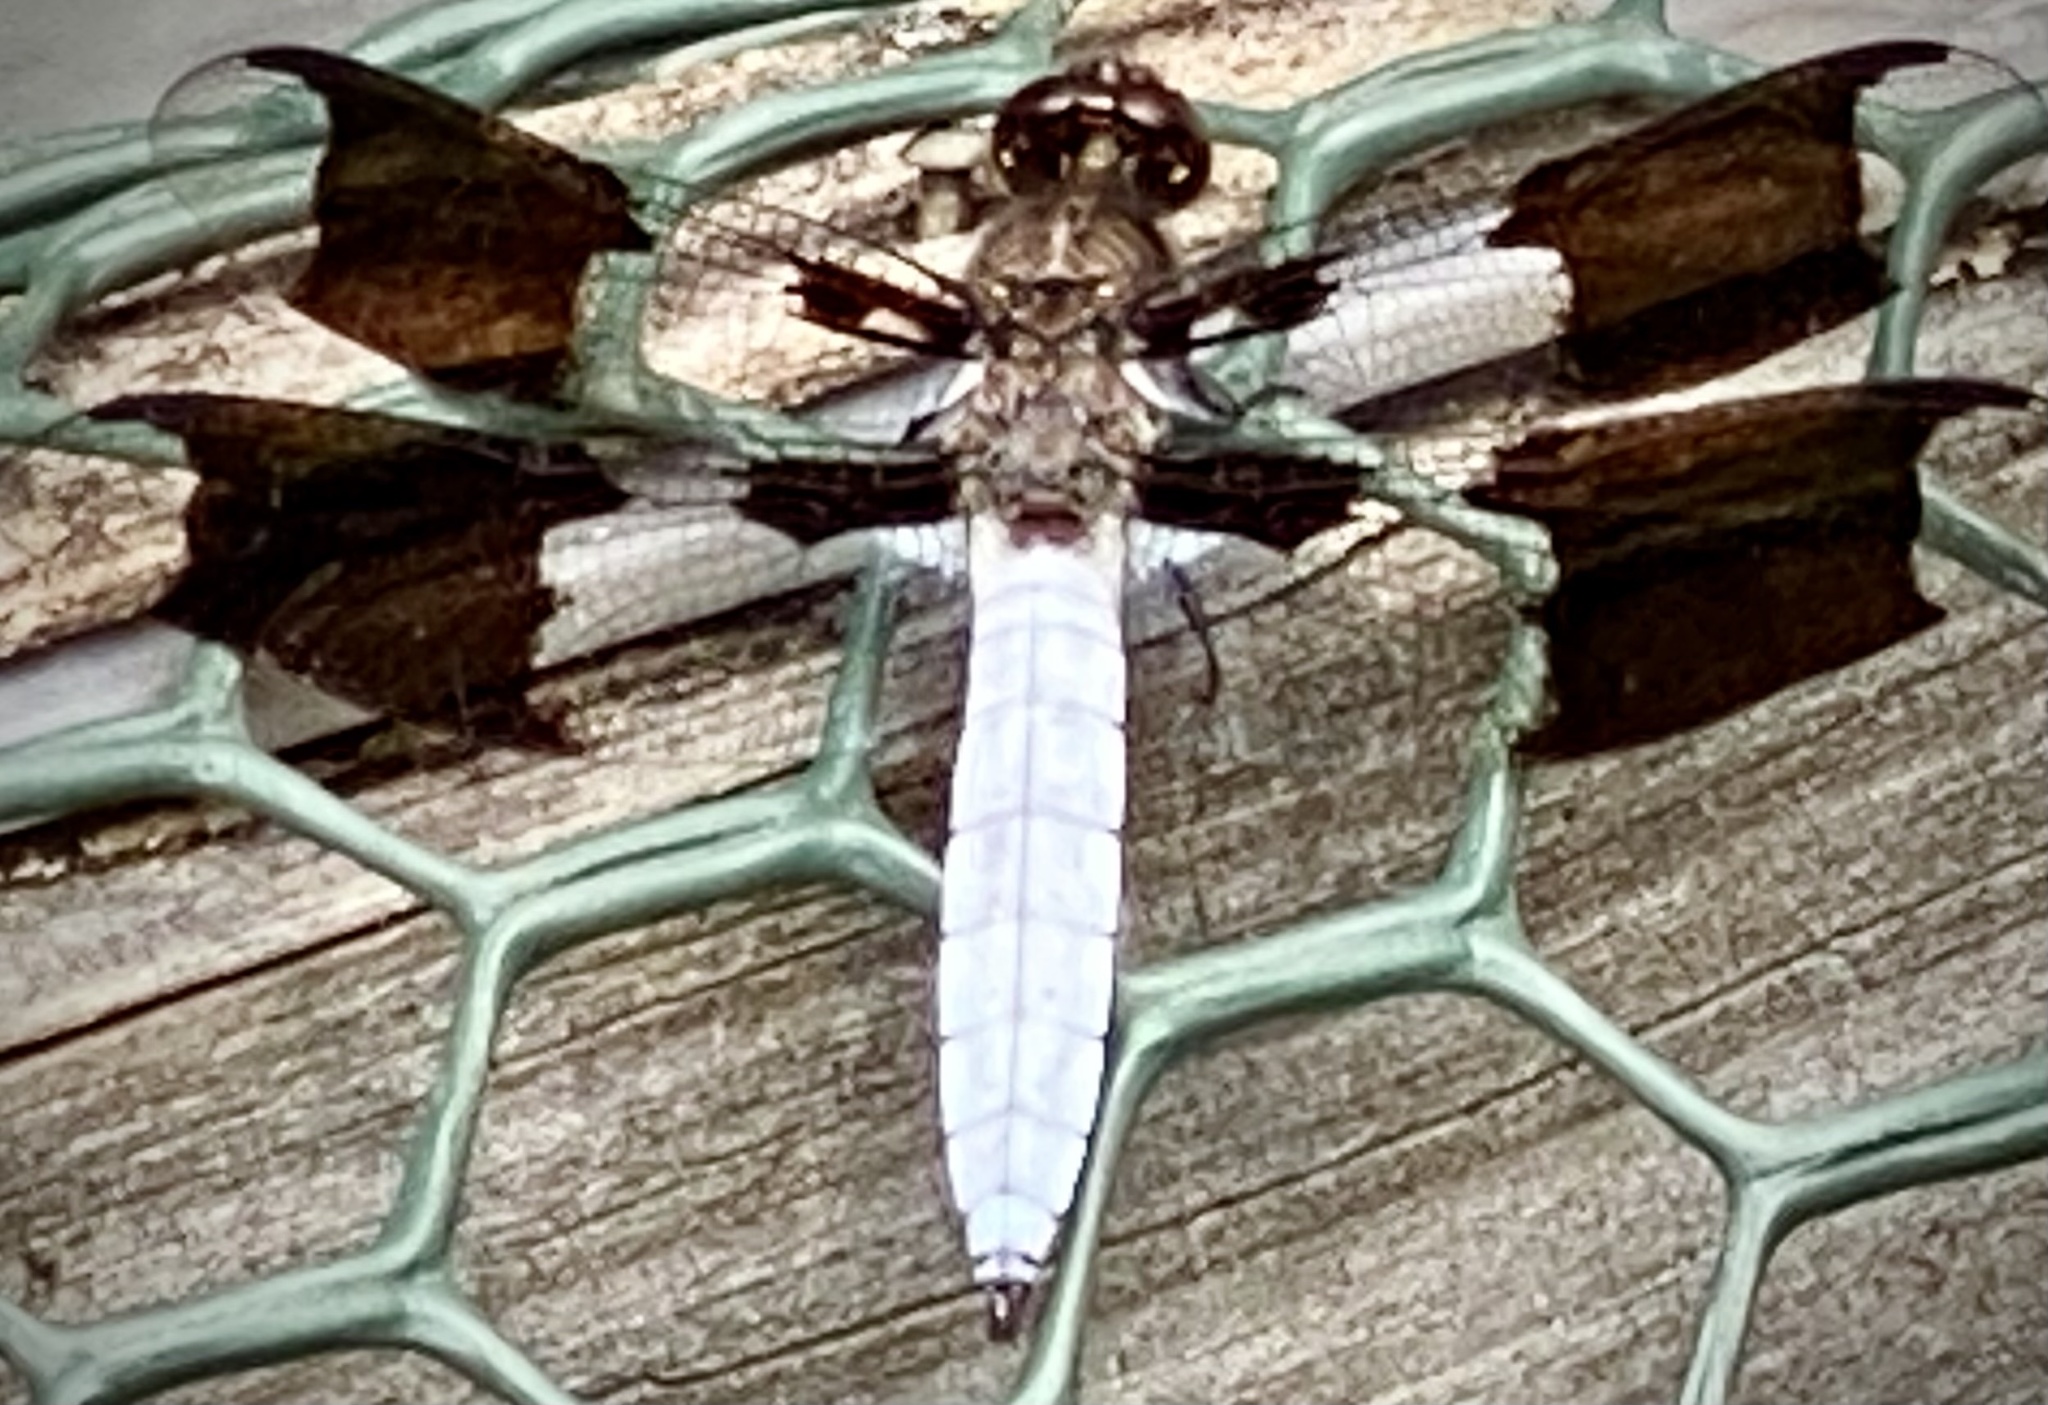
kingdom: Animalia
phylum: Arthropoda
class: Insecta
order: Odonata
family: Libellulidae
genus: Plathemis
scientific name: Plathemis lydia
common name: Common whitetail
